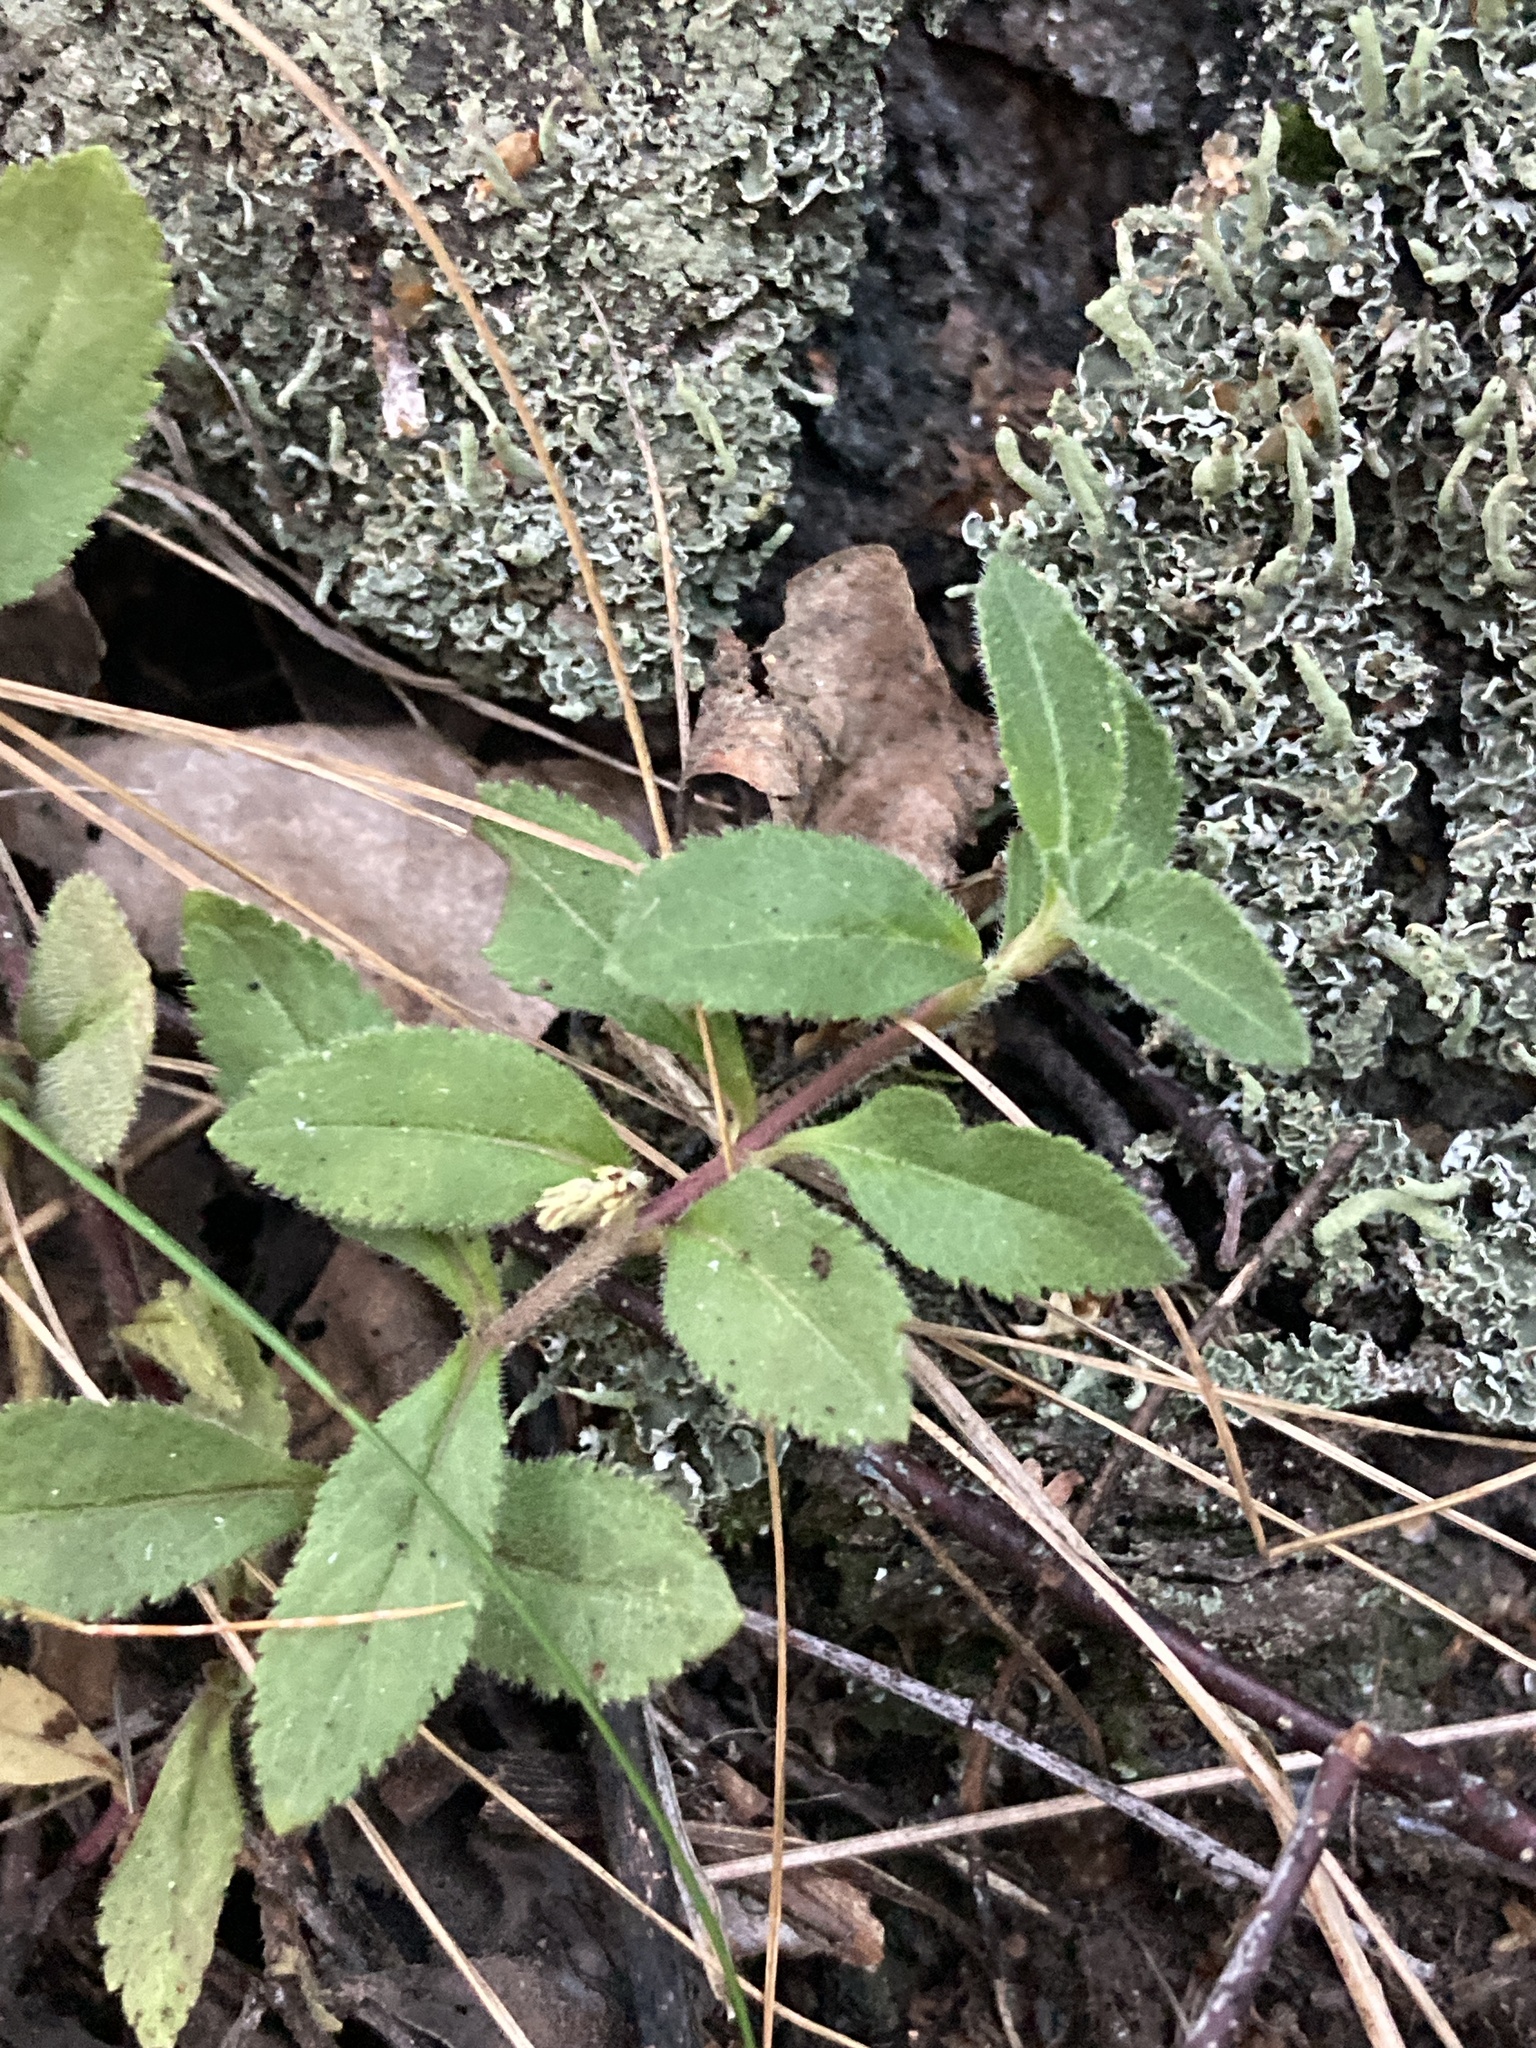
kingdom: Plantae
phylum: Tracheophyta
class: Magnoliopsida
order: Lamiales
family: Plantaginaceae
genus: Veronica
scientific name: Veronica officinalis
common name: Common speedwell
